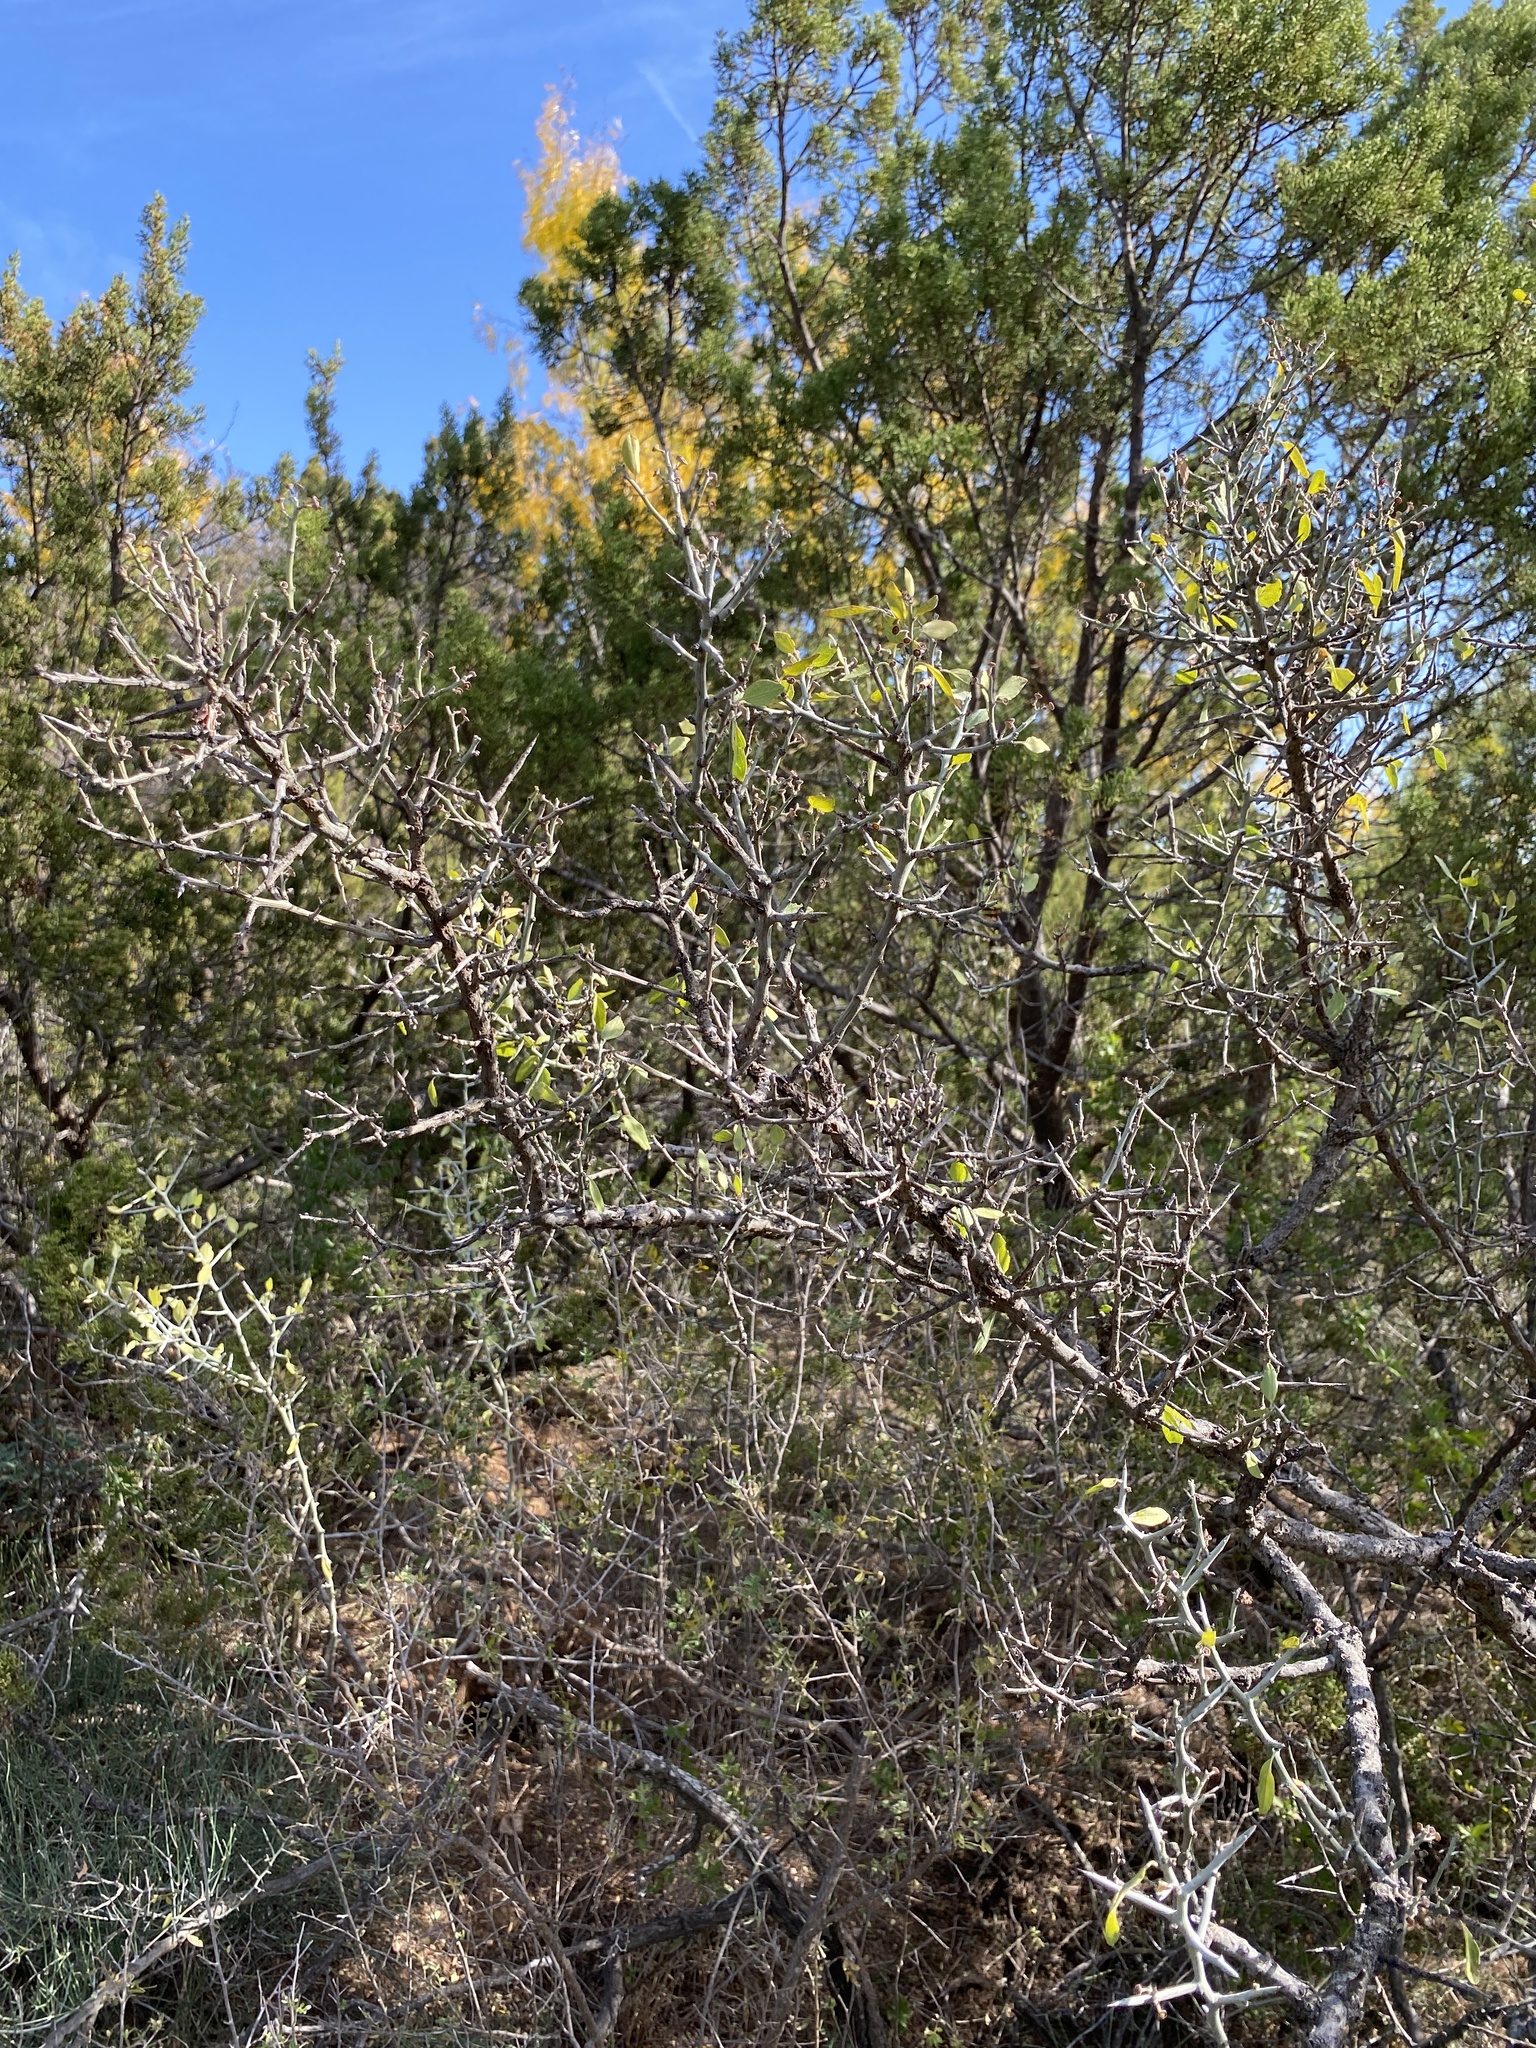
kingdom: Plantae
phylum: Tracheophyta
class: Magnoliopsida
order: Rosales
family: Rhamnaceae
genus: Sarcomphalus
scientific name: Sarcomphalus obtusifolius
